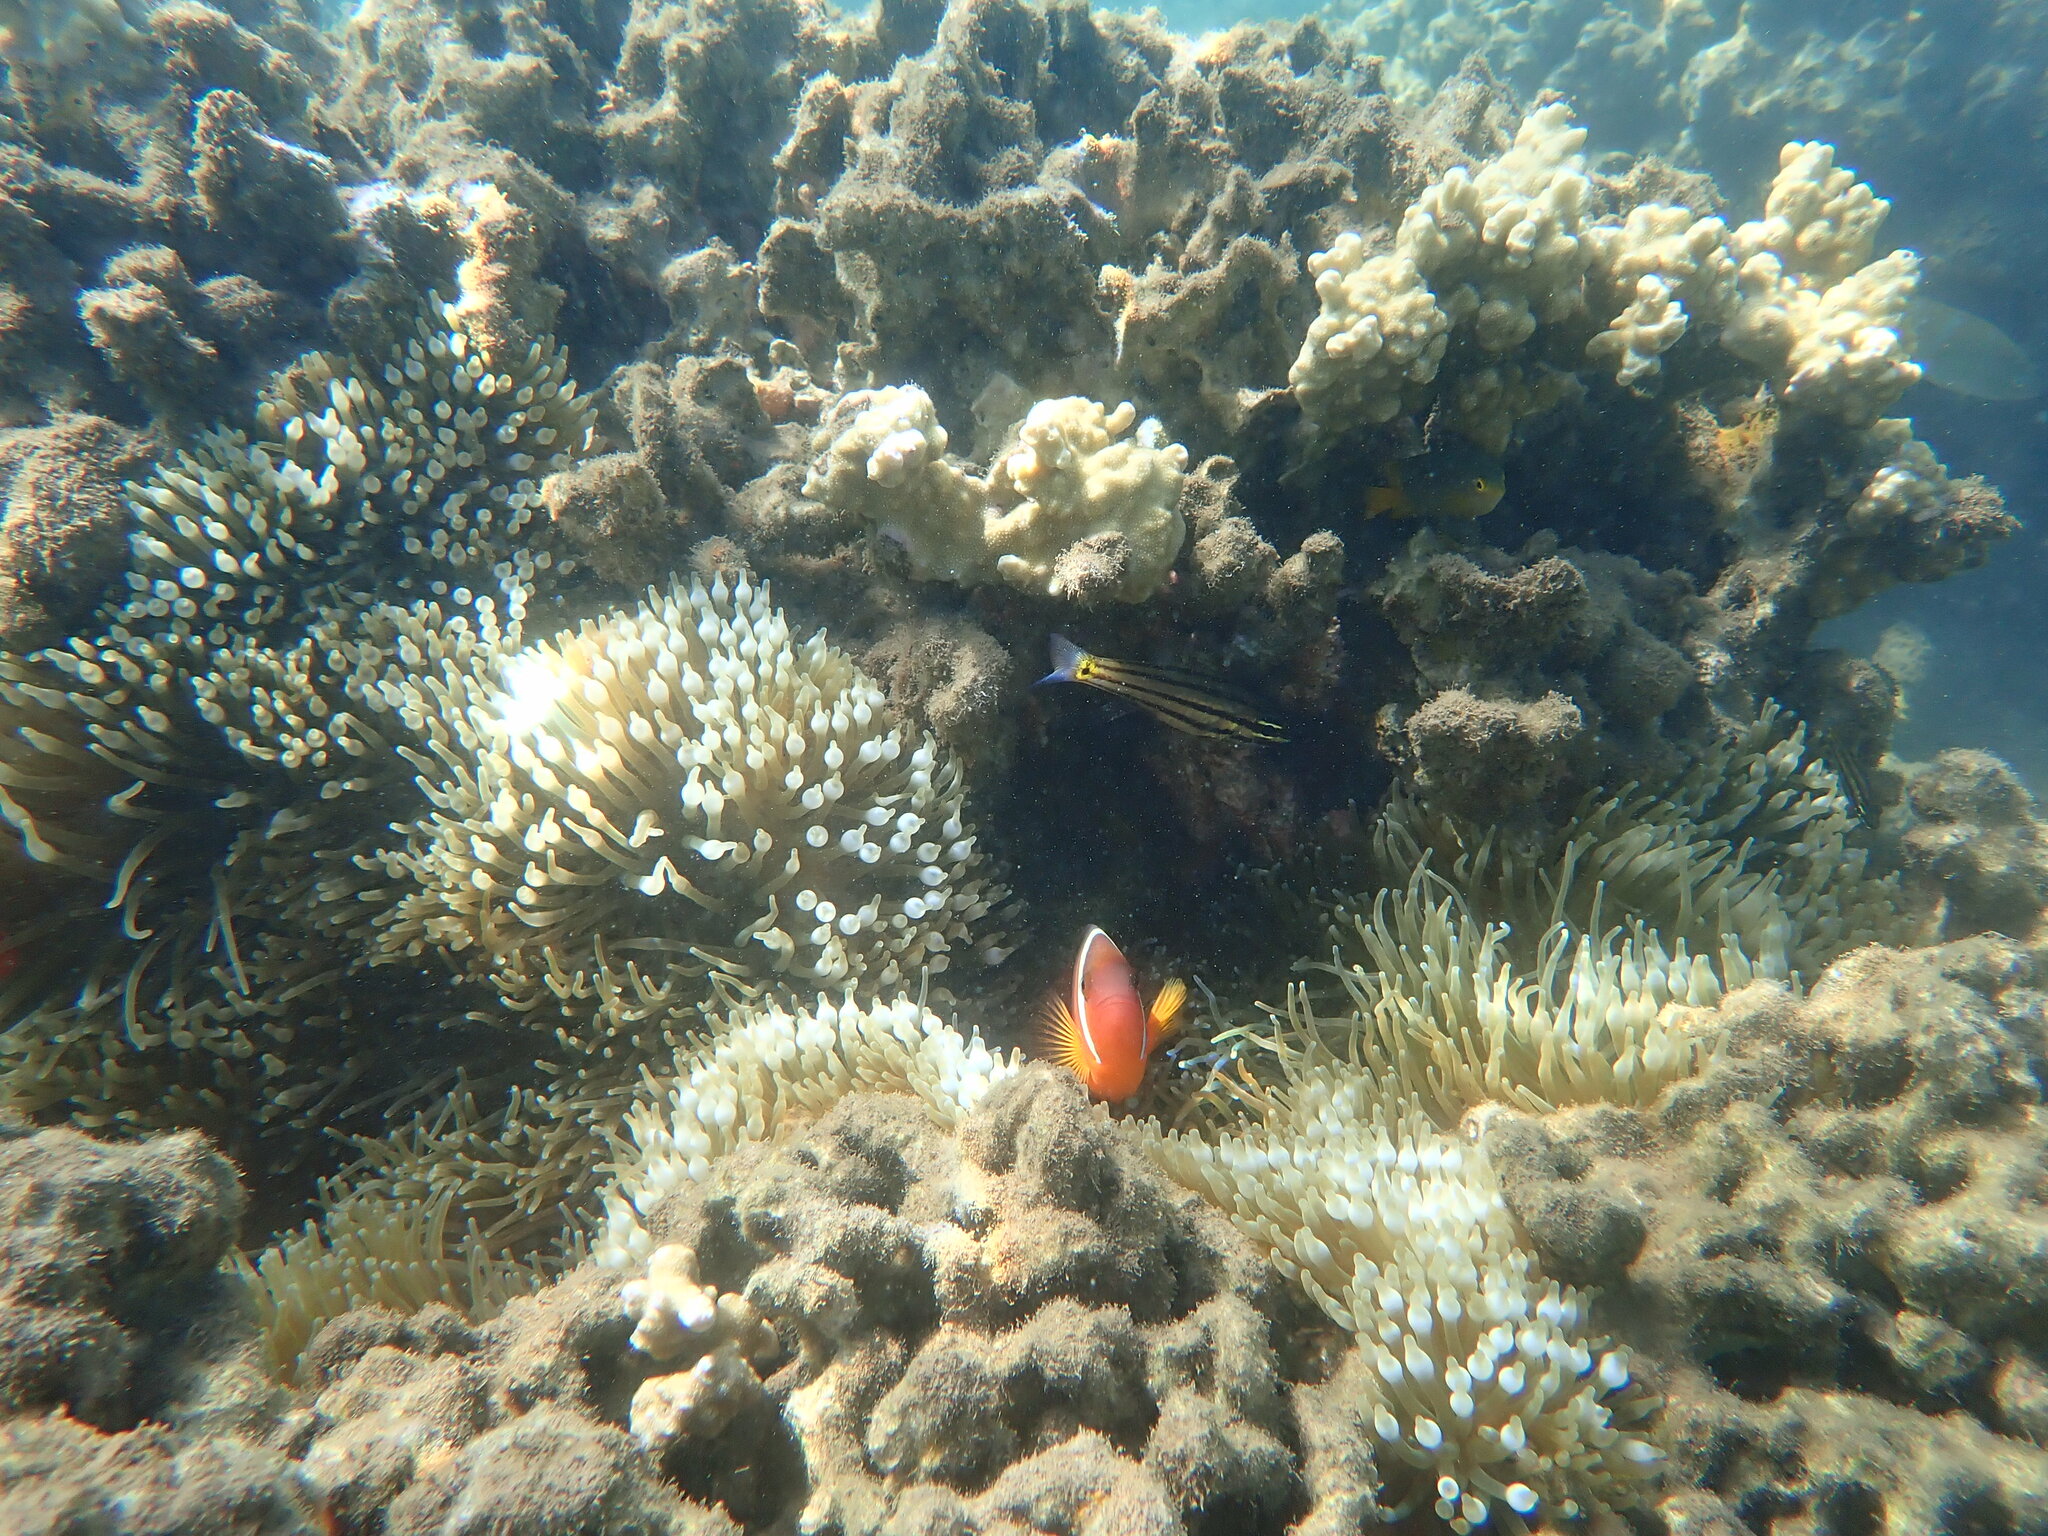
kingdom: Animalia
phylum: Chordata
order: Perciformes
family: Pomacentridae
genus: Amphiprion
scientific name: Amphiprion barberi
